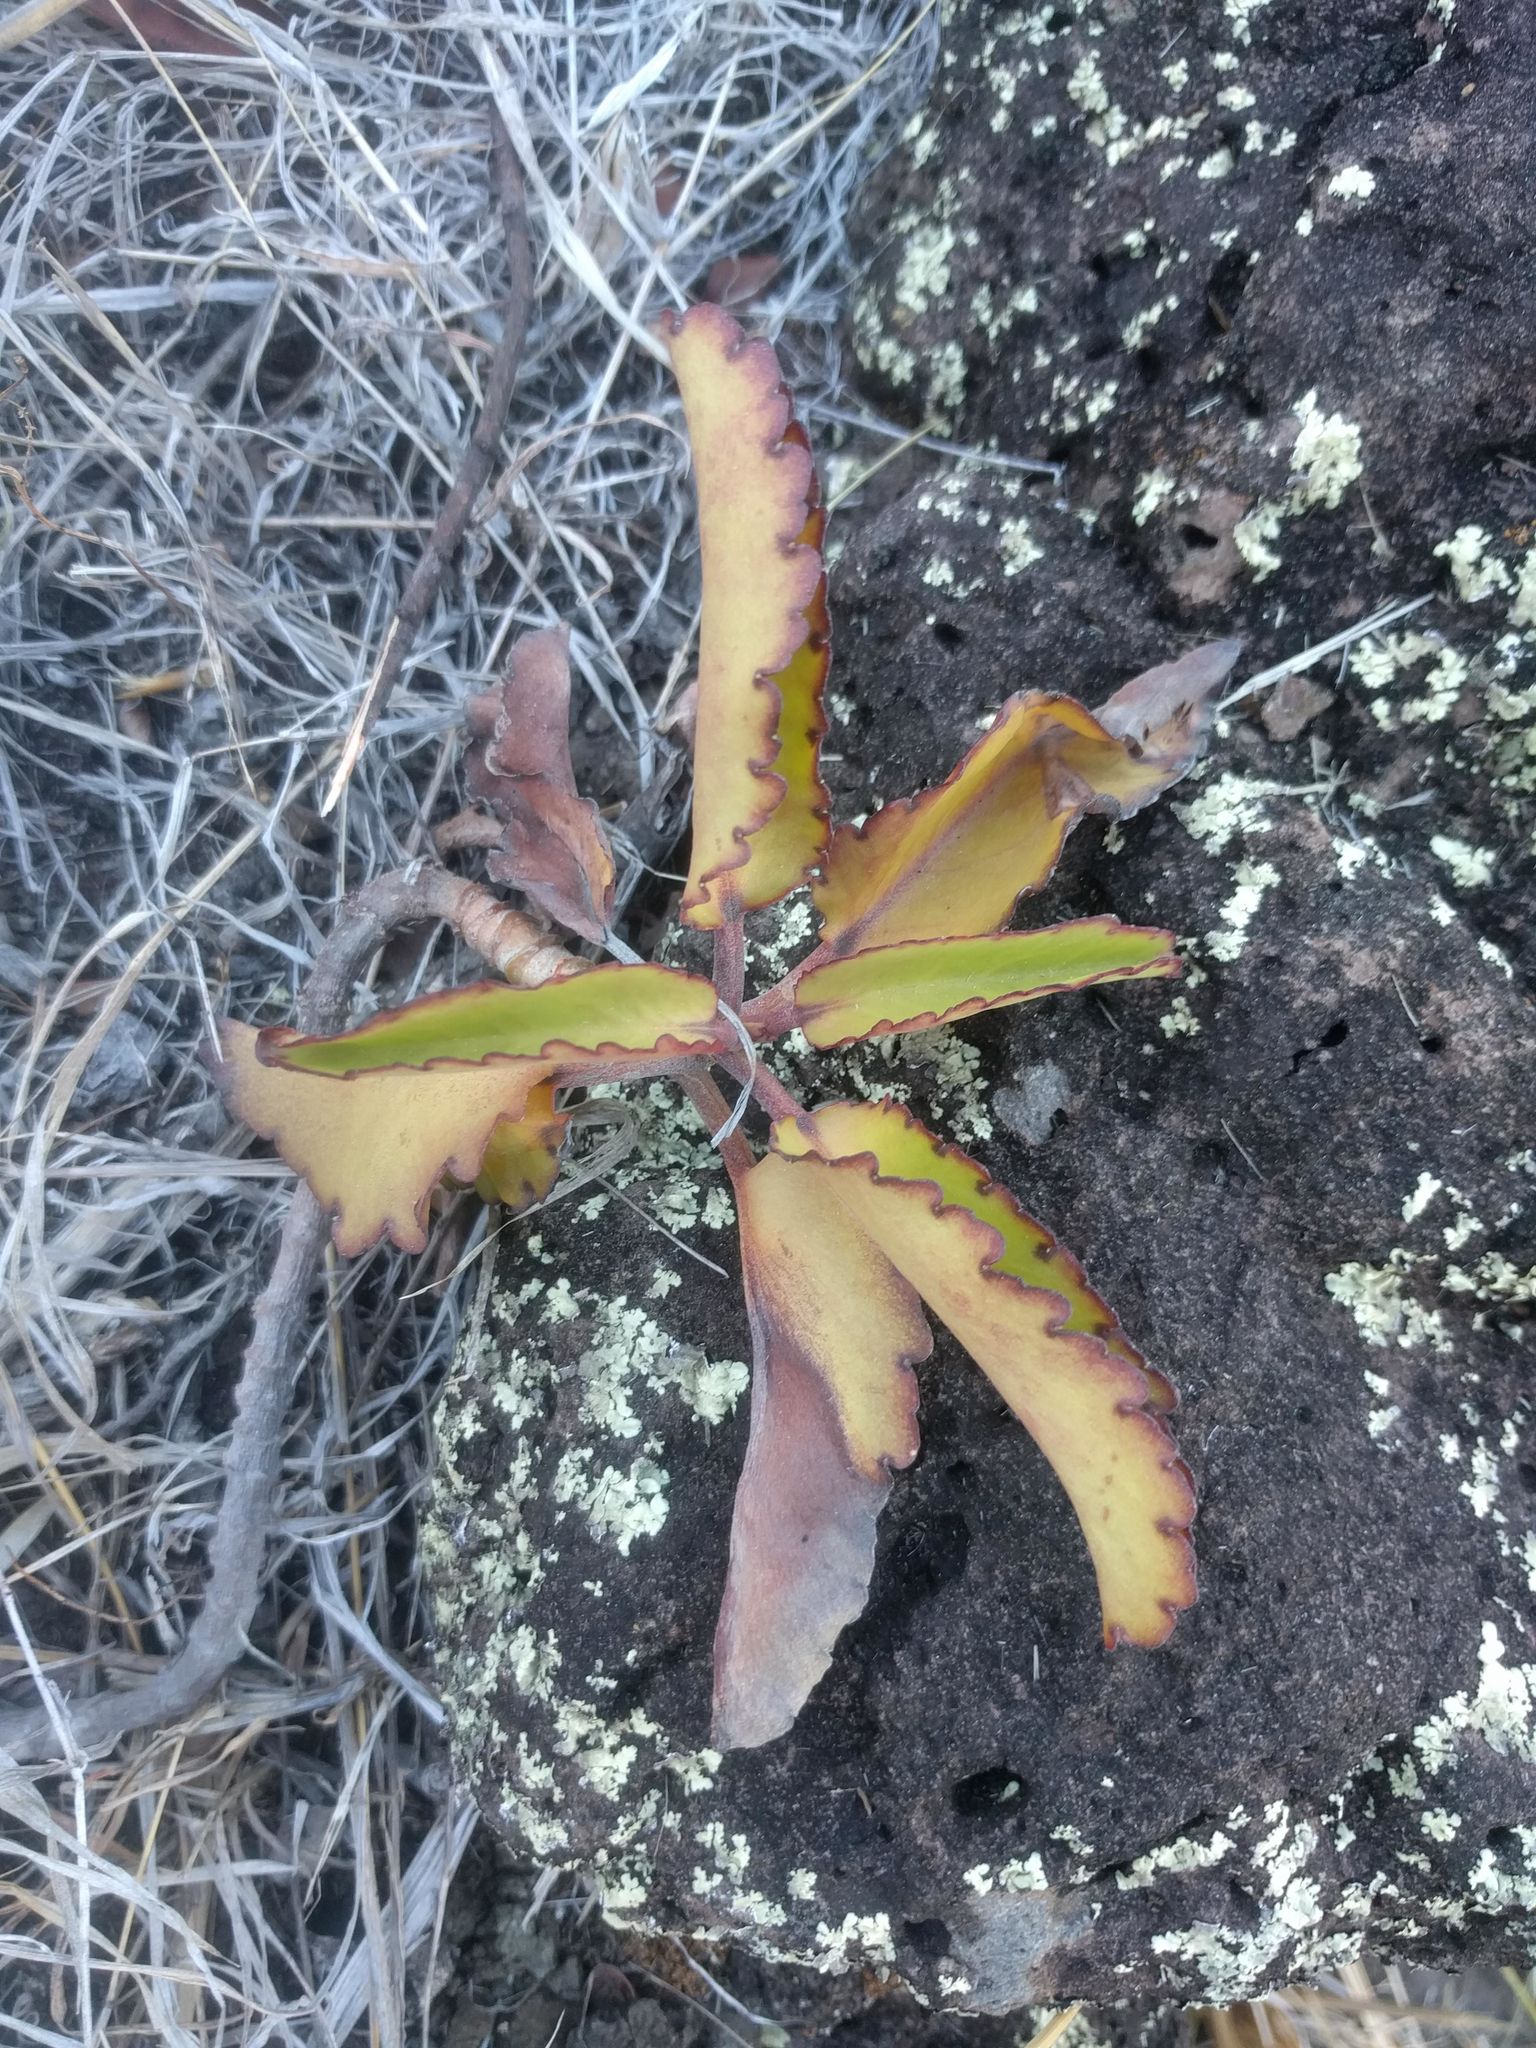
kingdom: Plantae
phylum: Tracheophyta
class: Magnoliopsida
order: Saxifragales
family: Crassulaceae
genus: Kalanchoe
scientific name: Kalanchoe pinnata
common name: Cathedral bells
